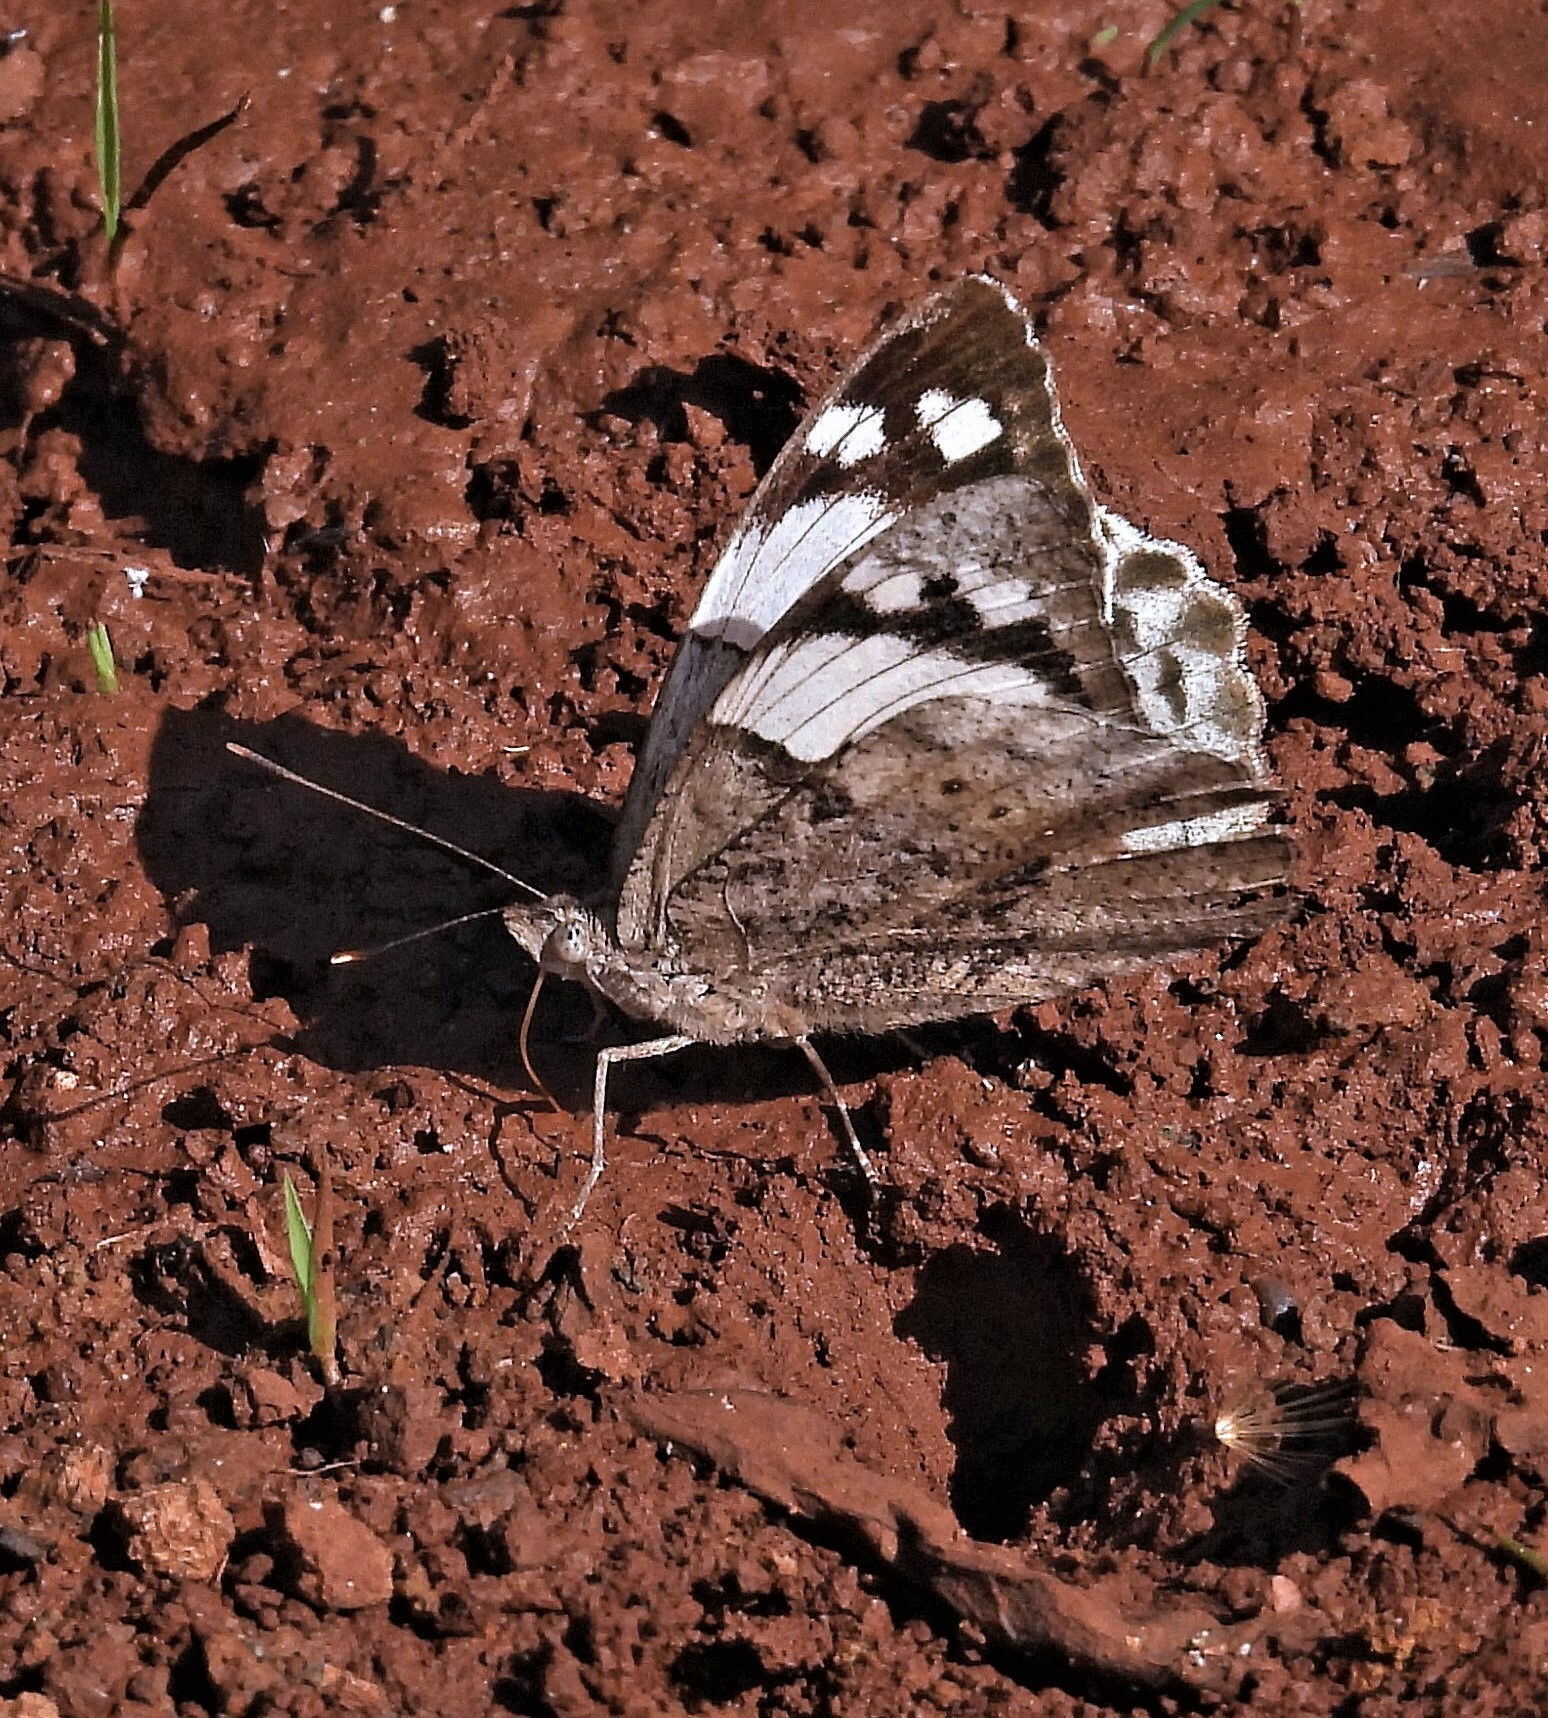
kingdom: Animalia
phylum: Arthropoda
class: Insecta
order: Lepidoptera
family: Nymphalidae
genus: Eunica
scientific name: Eunica eburnea
